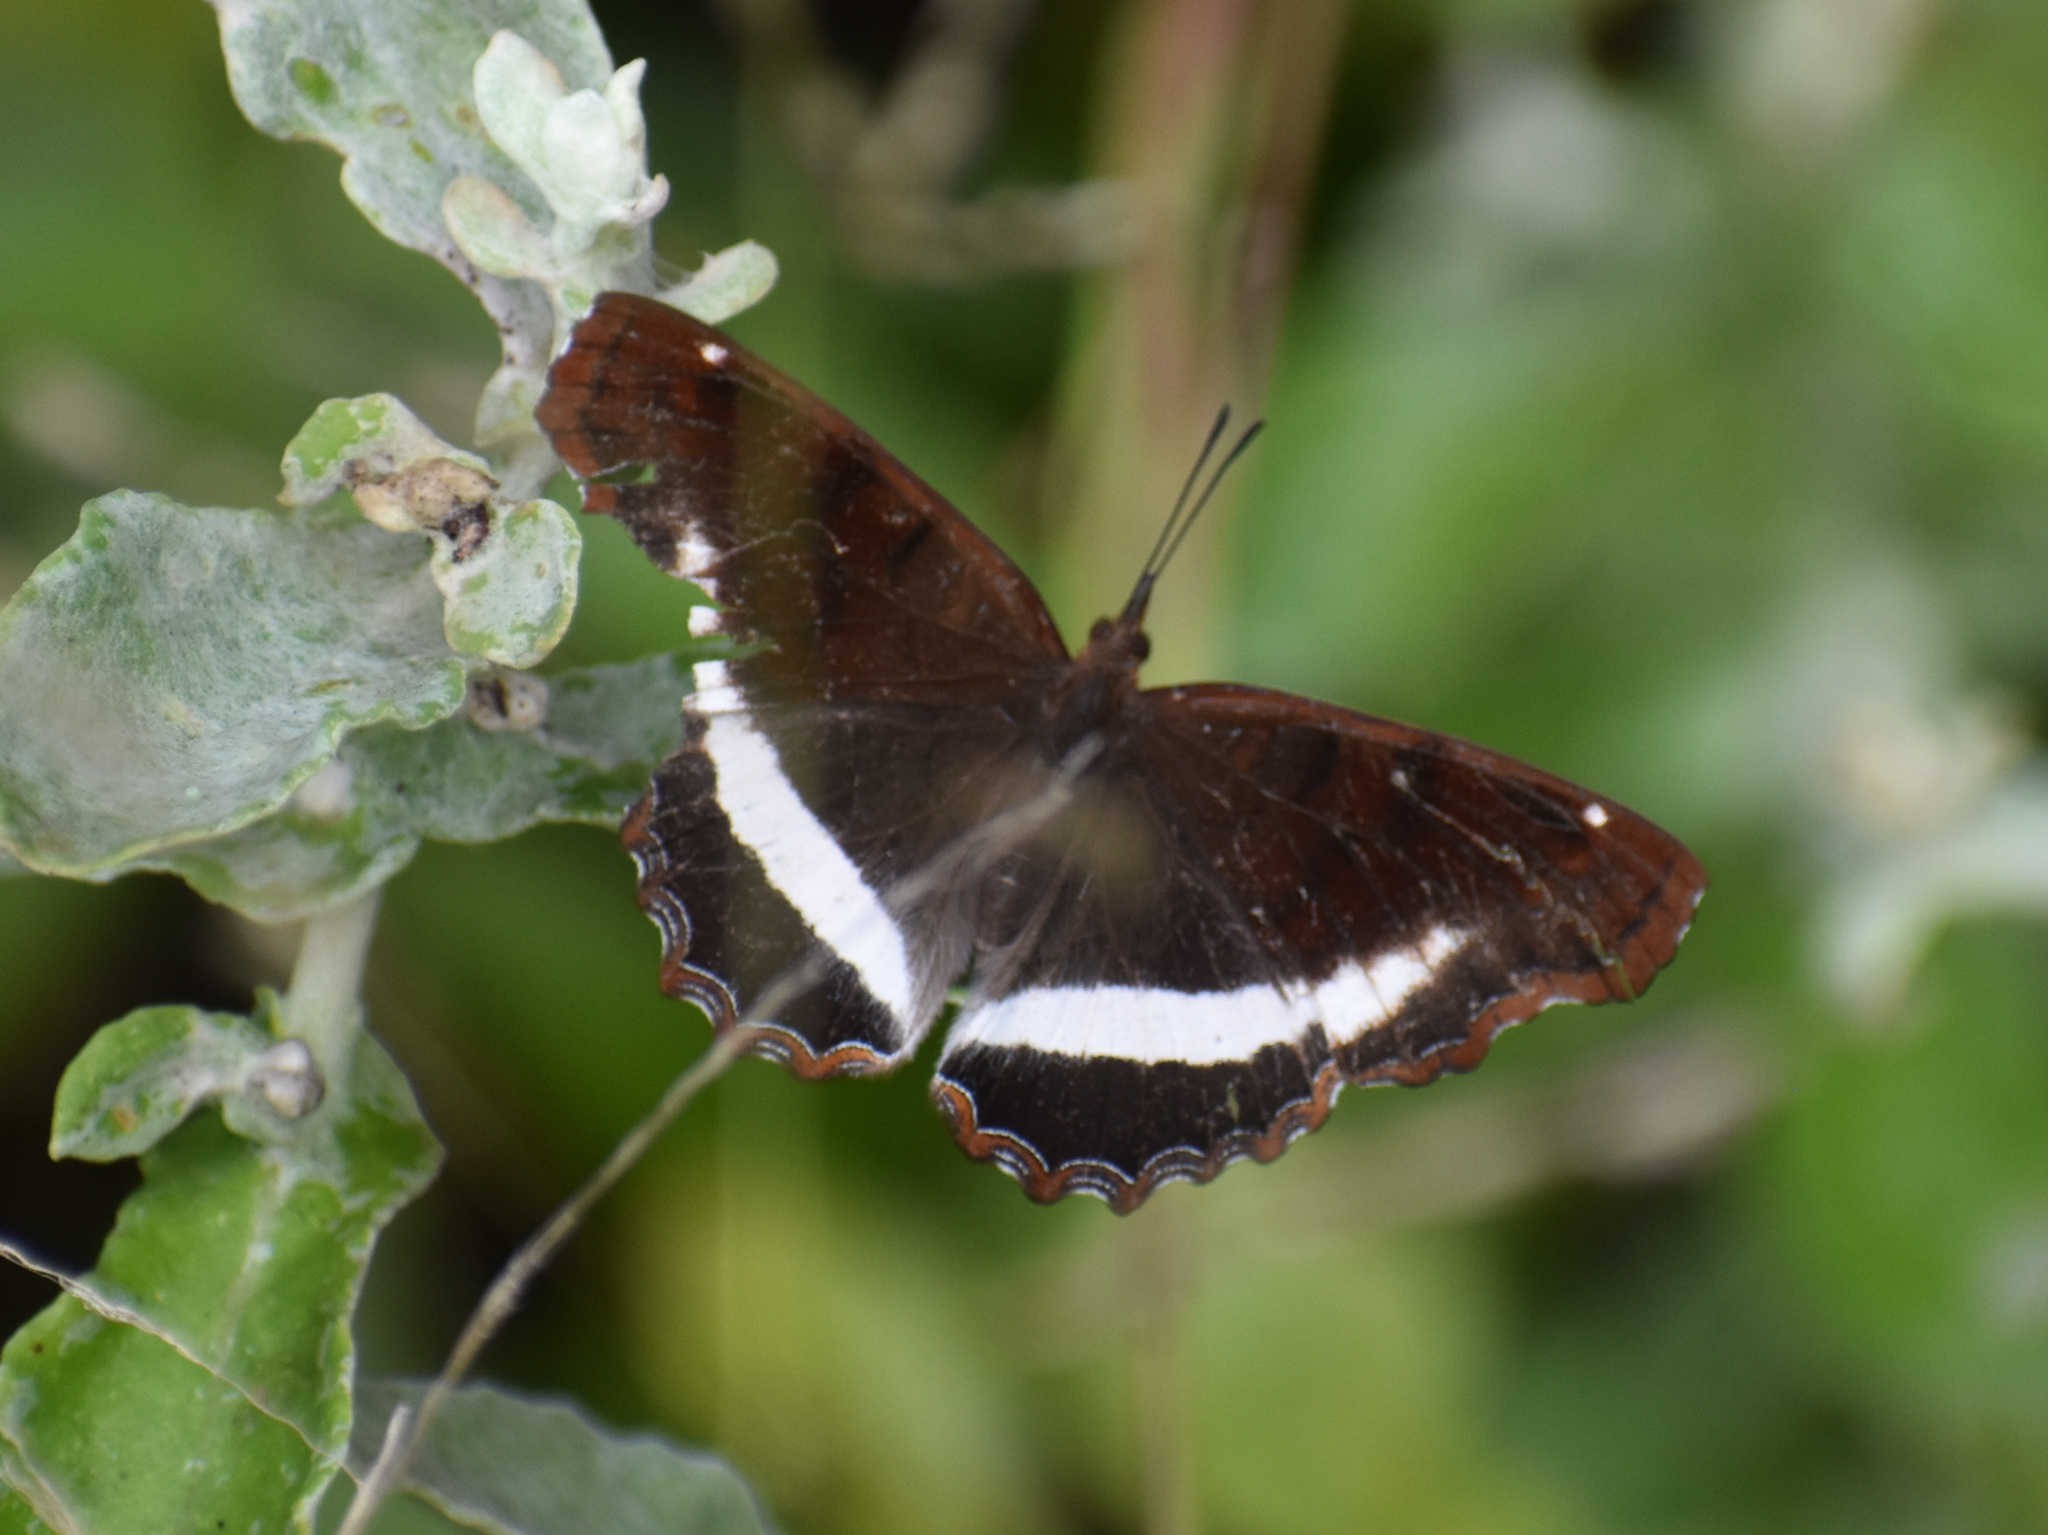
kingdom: Animalia
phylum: Arthropoda
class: Insecta
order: Lepidoptera
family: Nymphalidae
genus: Eurytela
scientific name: Eurytela hiarbas
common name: Pied piper
